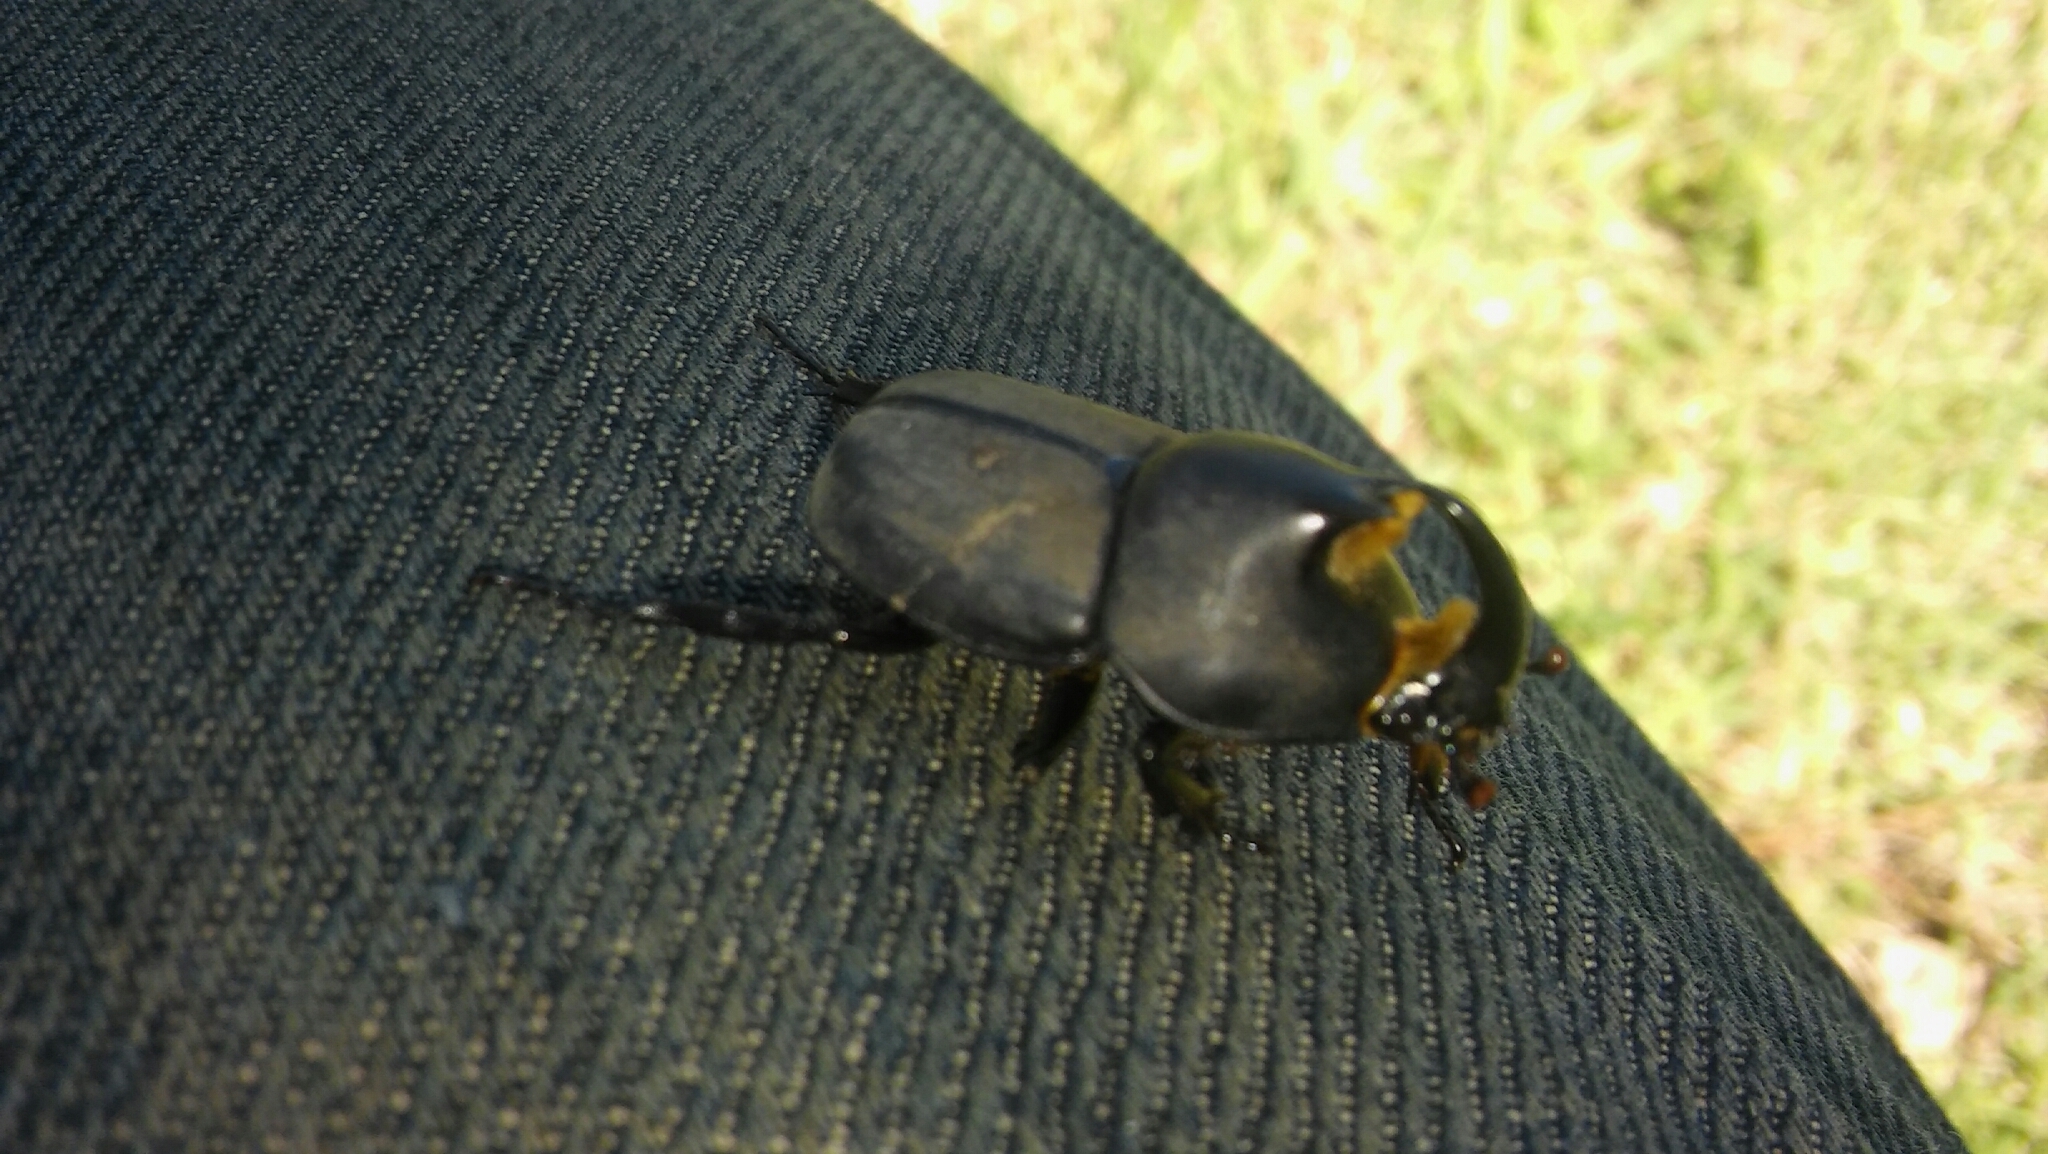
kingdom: Animalia
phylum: Arthropoda
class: Insecta
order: Coleoptera
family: Scarabaeidae
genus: Diloboderus
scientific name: Diloboderus abderus
